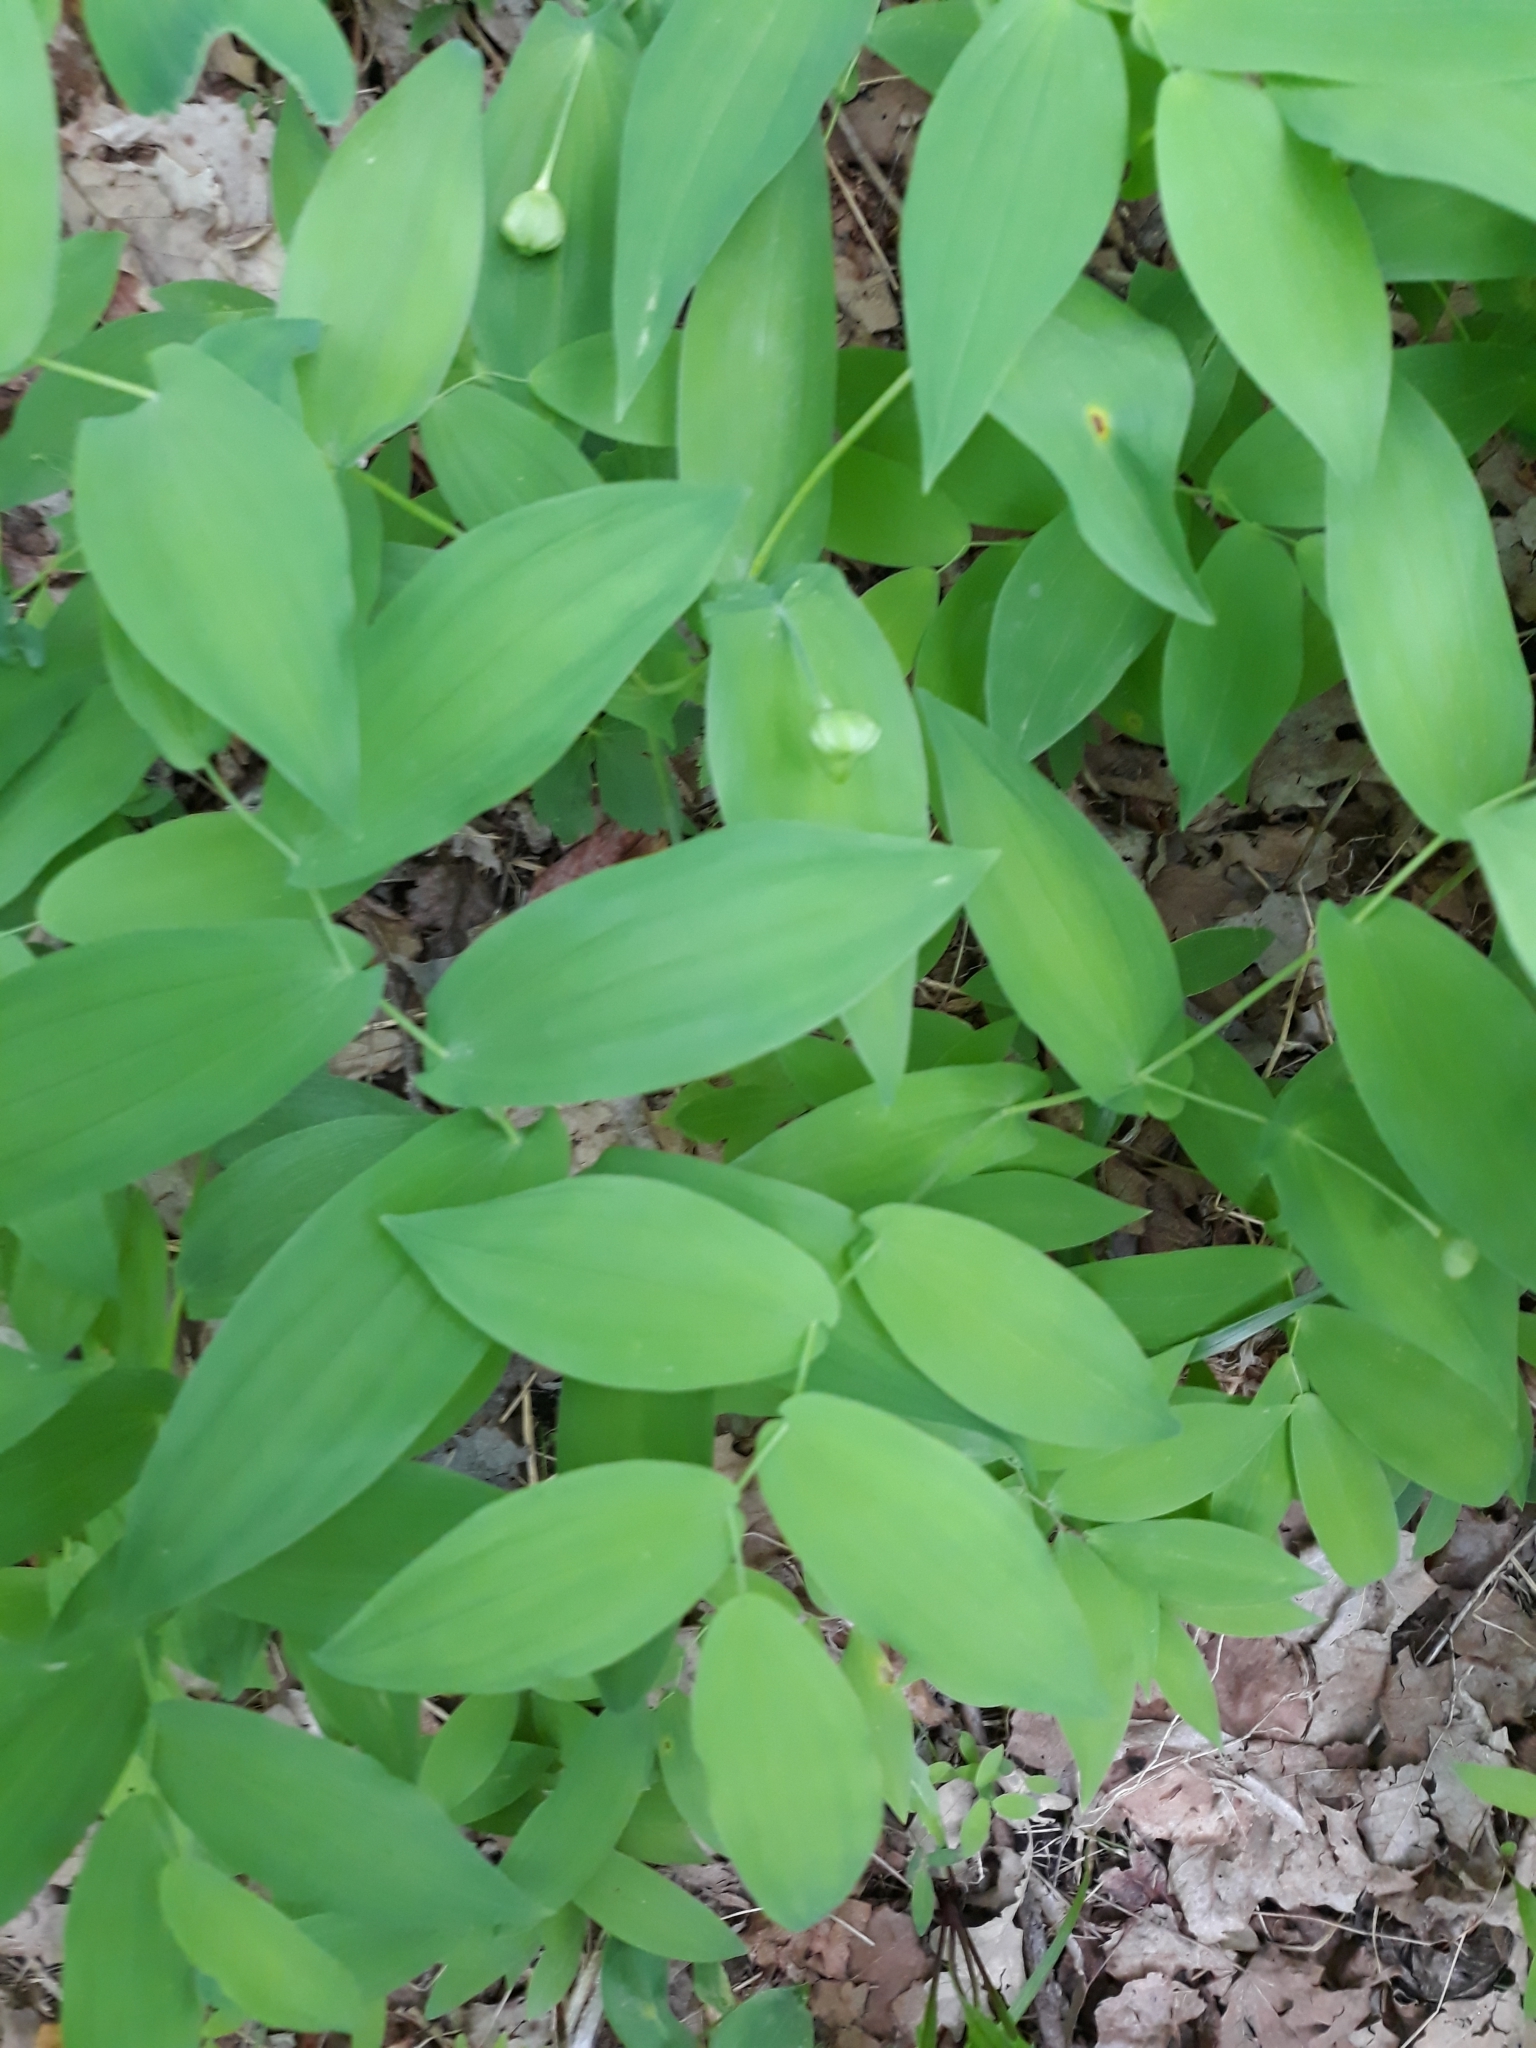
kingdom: Plantae
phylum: Tracheophyta
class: Liliopsida
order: Liliales
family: Colchicaceae
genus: Uvularia
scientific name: Uvularia grandiflora
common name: Bellwort
